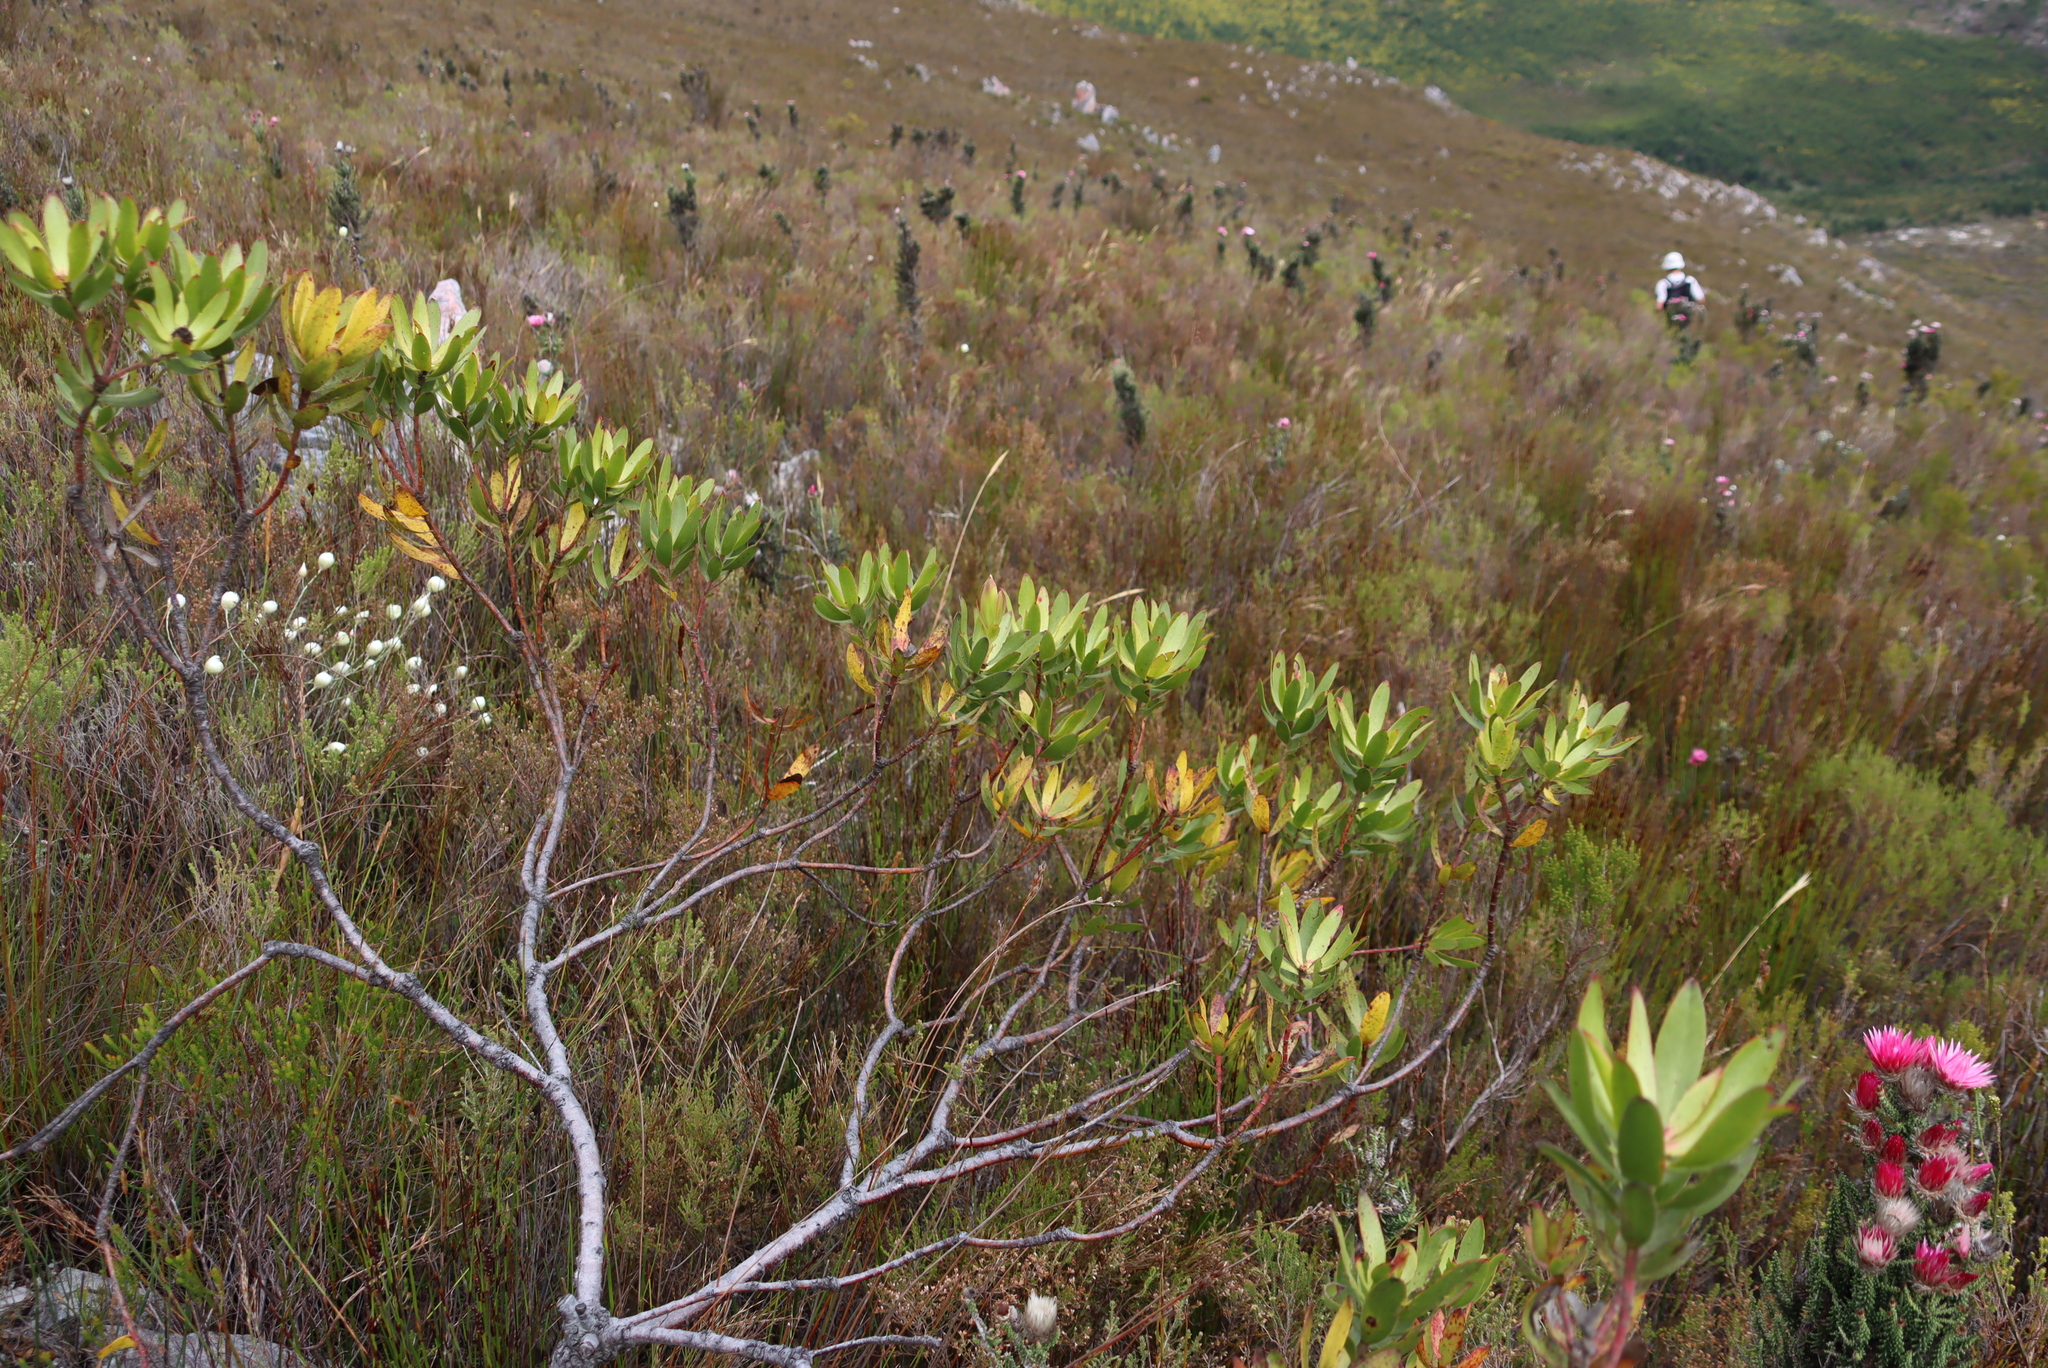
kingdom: Plantae
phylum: Tracheophyta
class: Magnoliopsida
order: Proteales
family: Proteaceae
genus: Leucadendron
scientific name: Leucadendron gandogeri
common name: Broad-leaf conebush
